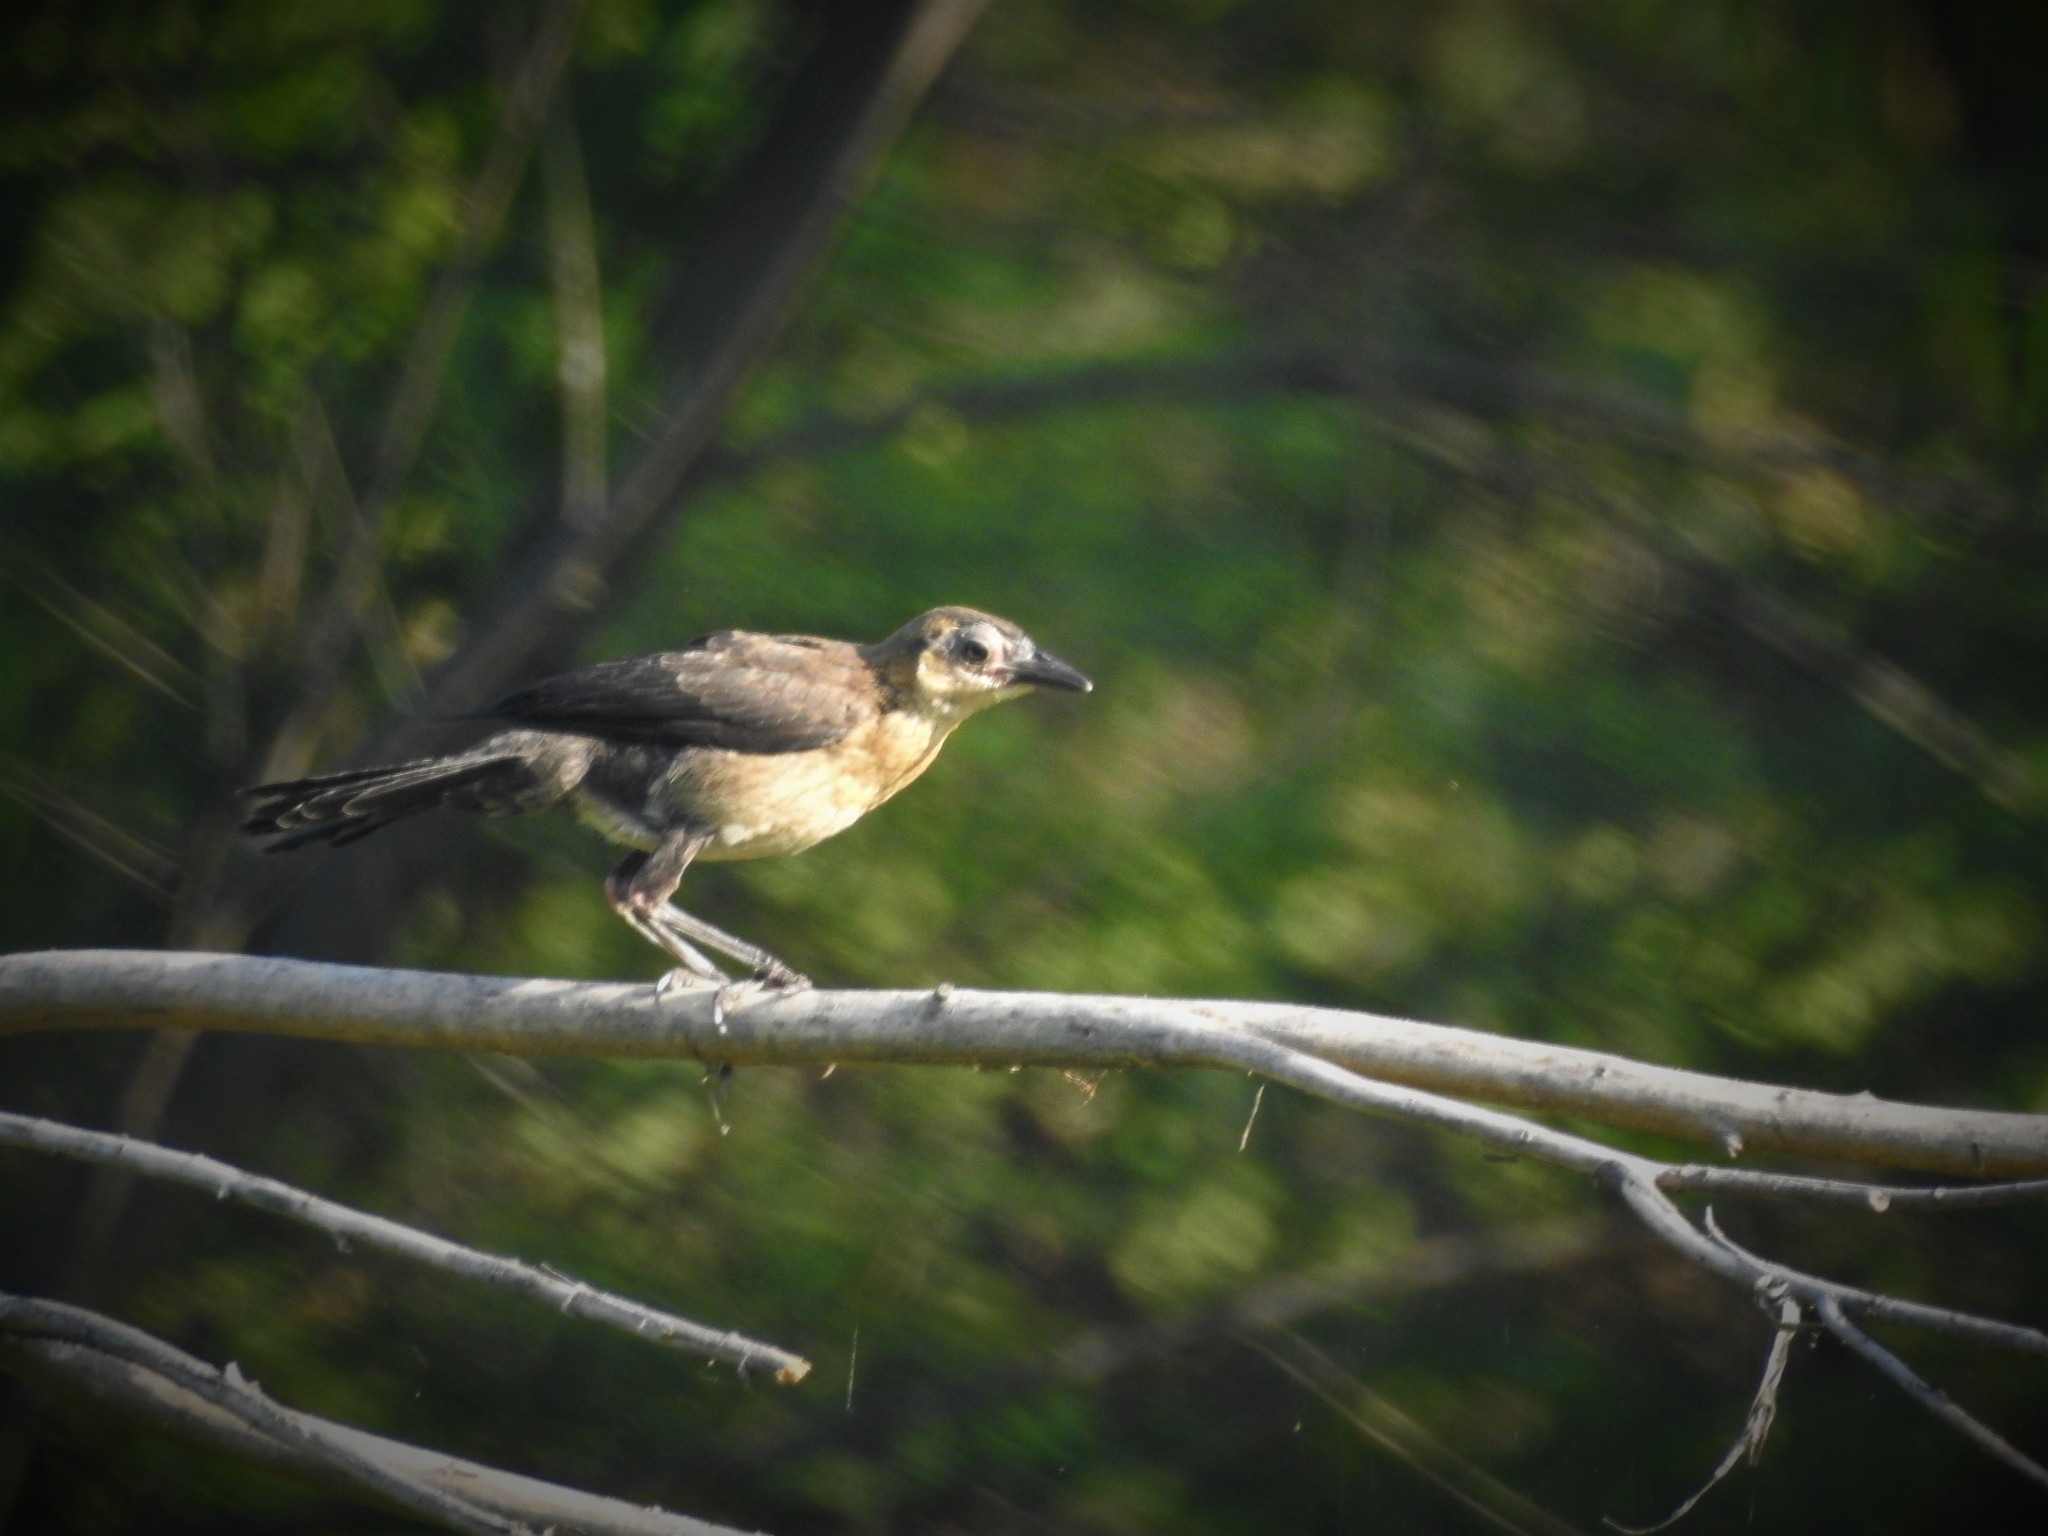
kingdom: Animalia
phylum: Chordata
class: Aves
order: Passeriformes
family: Icteridae
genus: Quiscalus
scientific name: Quiscalus mexicanus
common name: Great-tailed grackle
